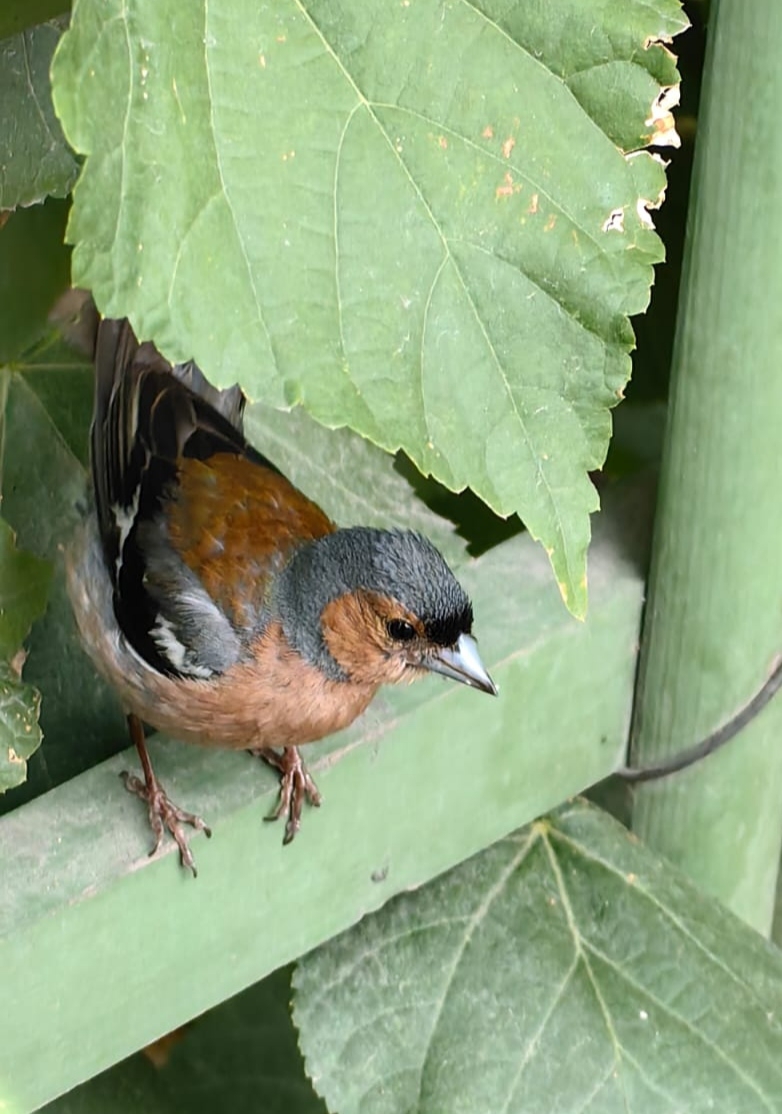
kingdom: Animalia
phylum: Chordata
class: Aves
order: Passeriformes
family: Fringillidae
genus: Fringilla
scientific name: Fringilla coelebs
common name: Common chaffinch
